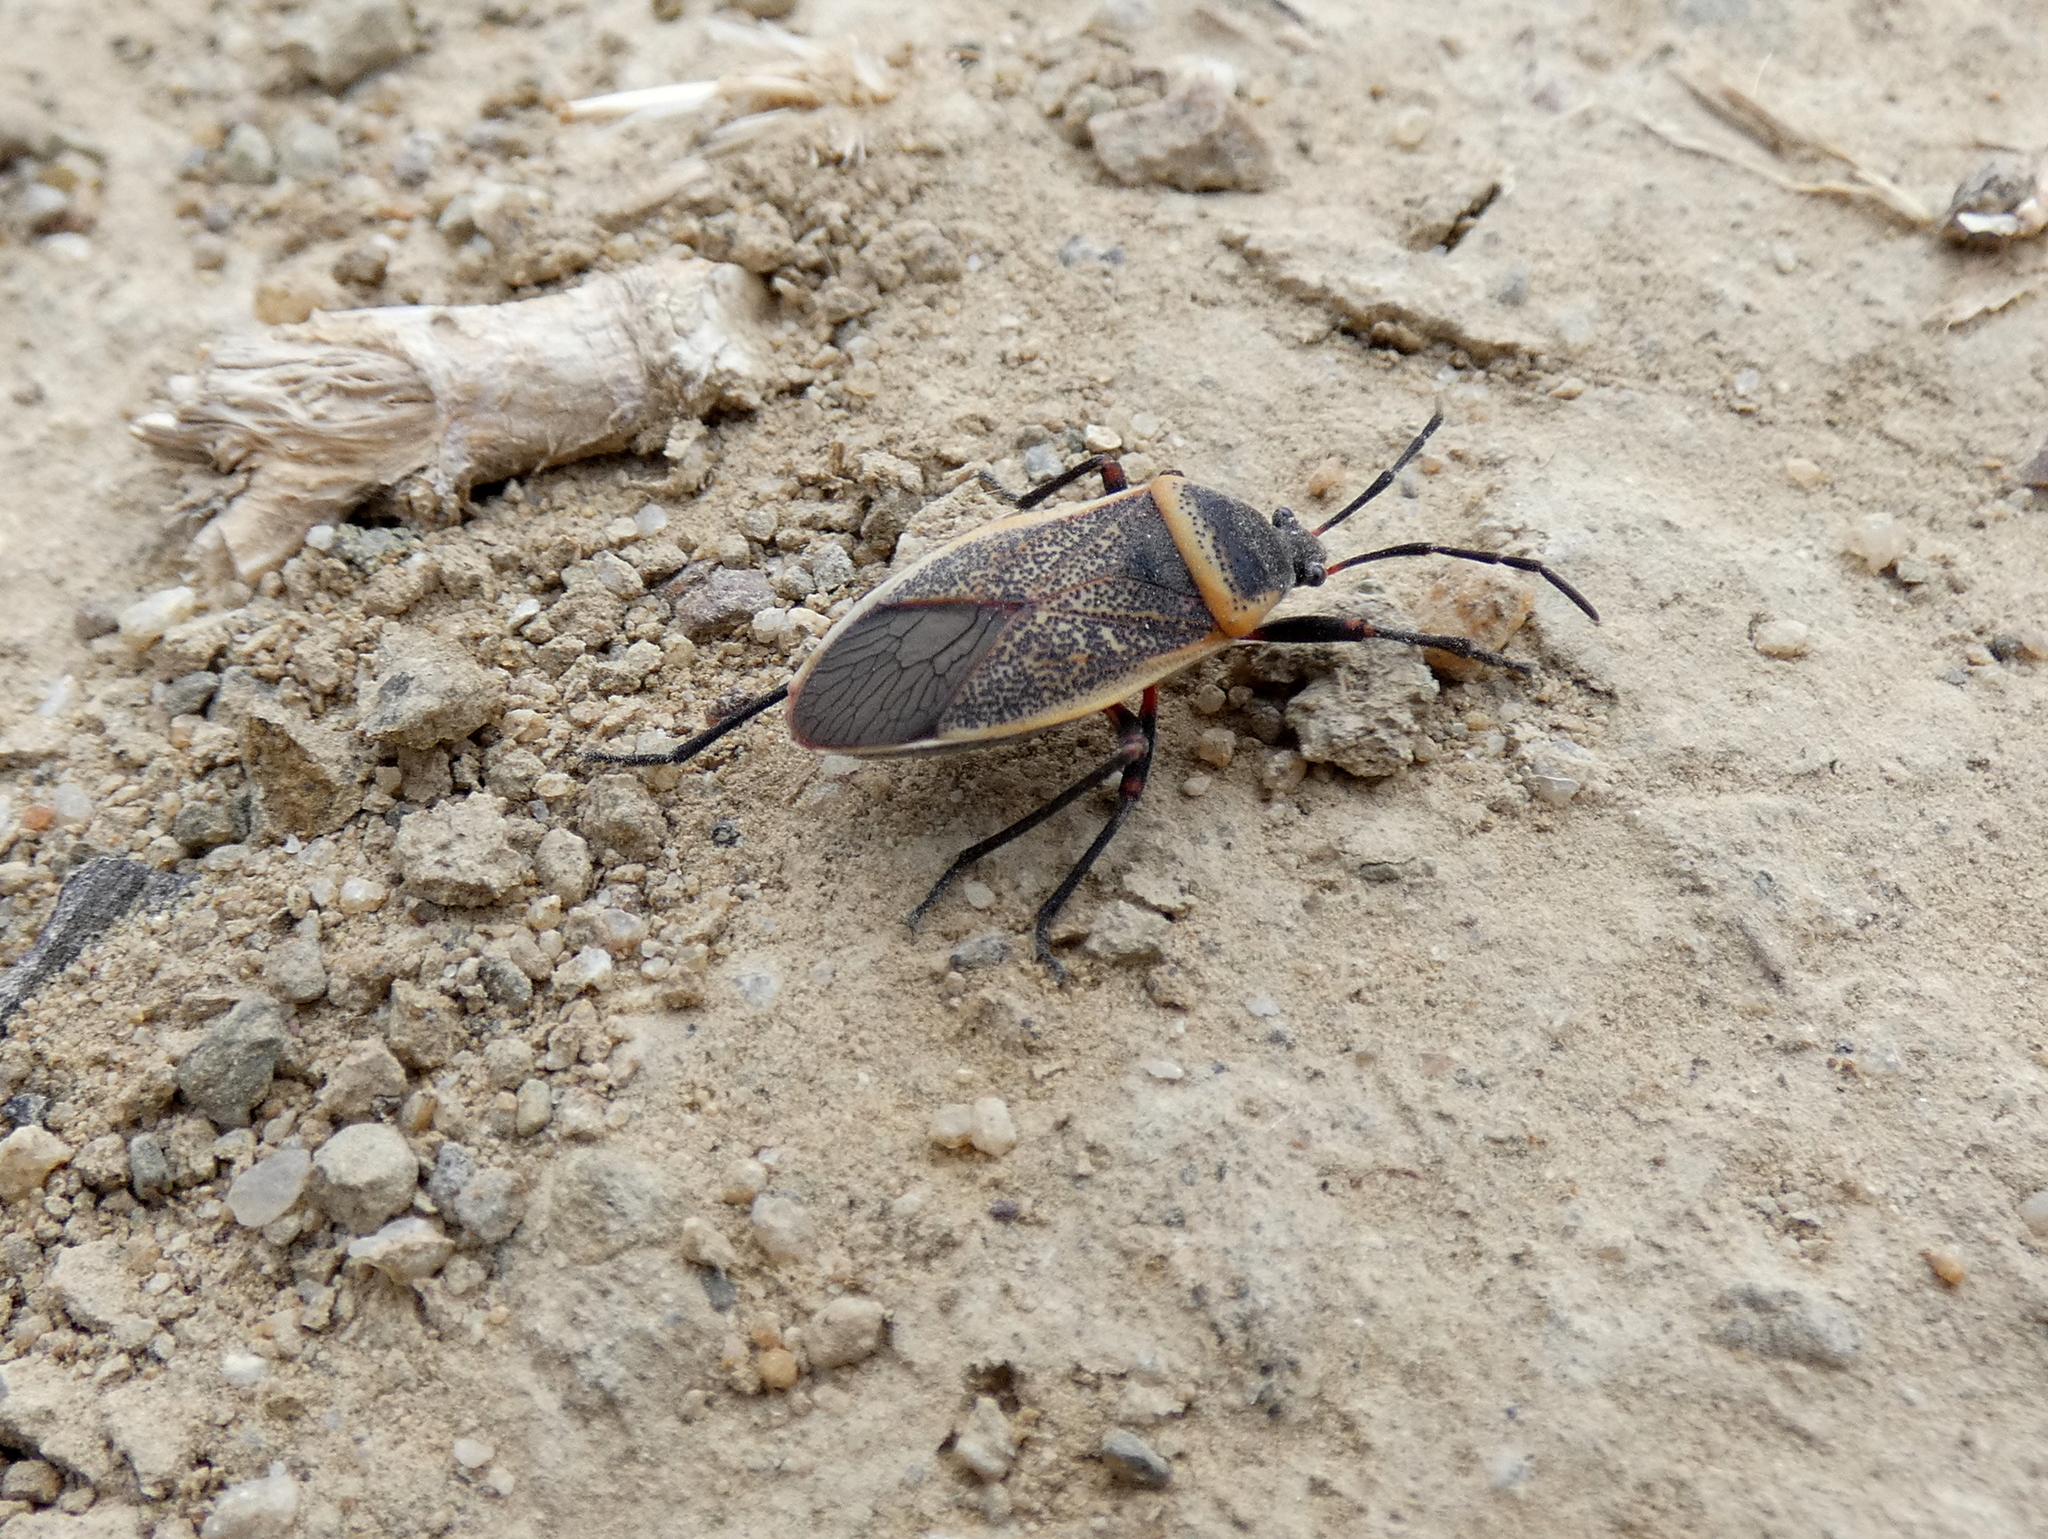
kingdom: Animalia
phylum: Arthropoda
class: Insecta
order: Hemiptera
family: Largidae
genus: Largus
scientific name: Largus californicus
